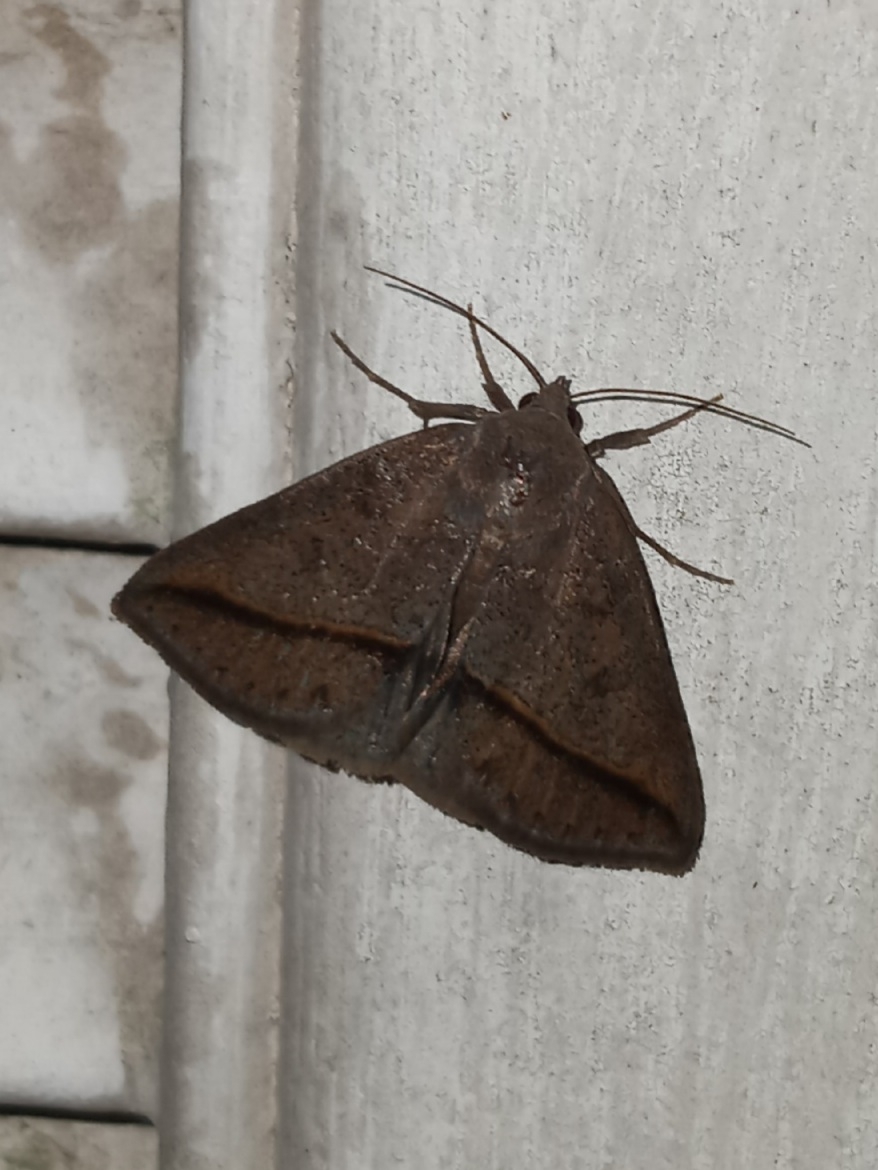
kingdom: Animalia
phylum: Arthropoda
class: Insecta
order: Lepidoptera
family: Erebidae
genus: Argyrostrotis
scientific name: Argyrostrotis flavistriaria
